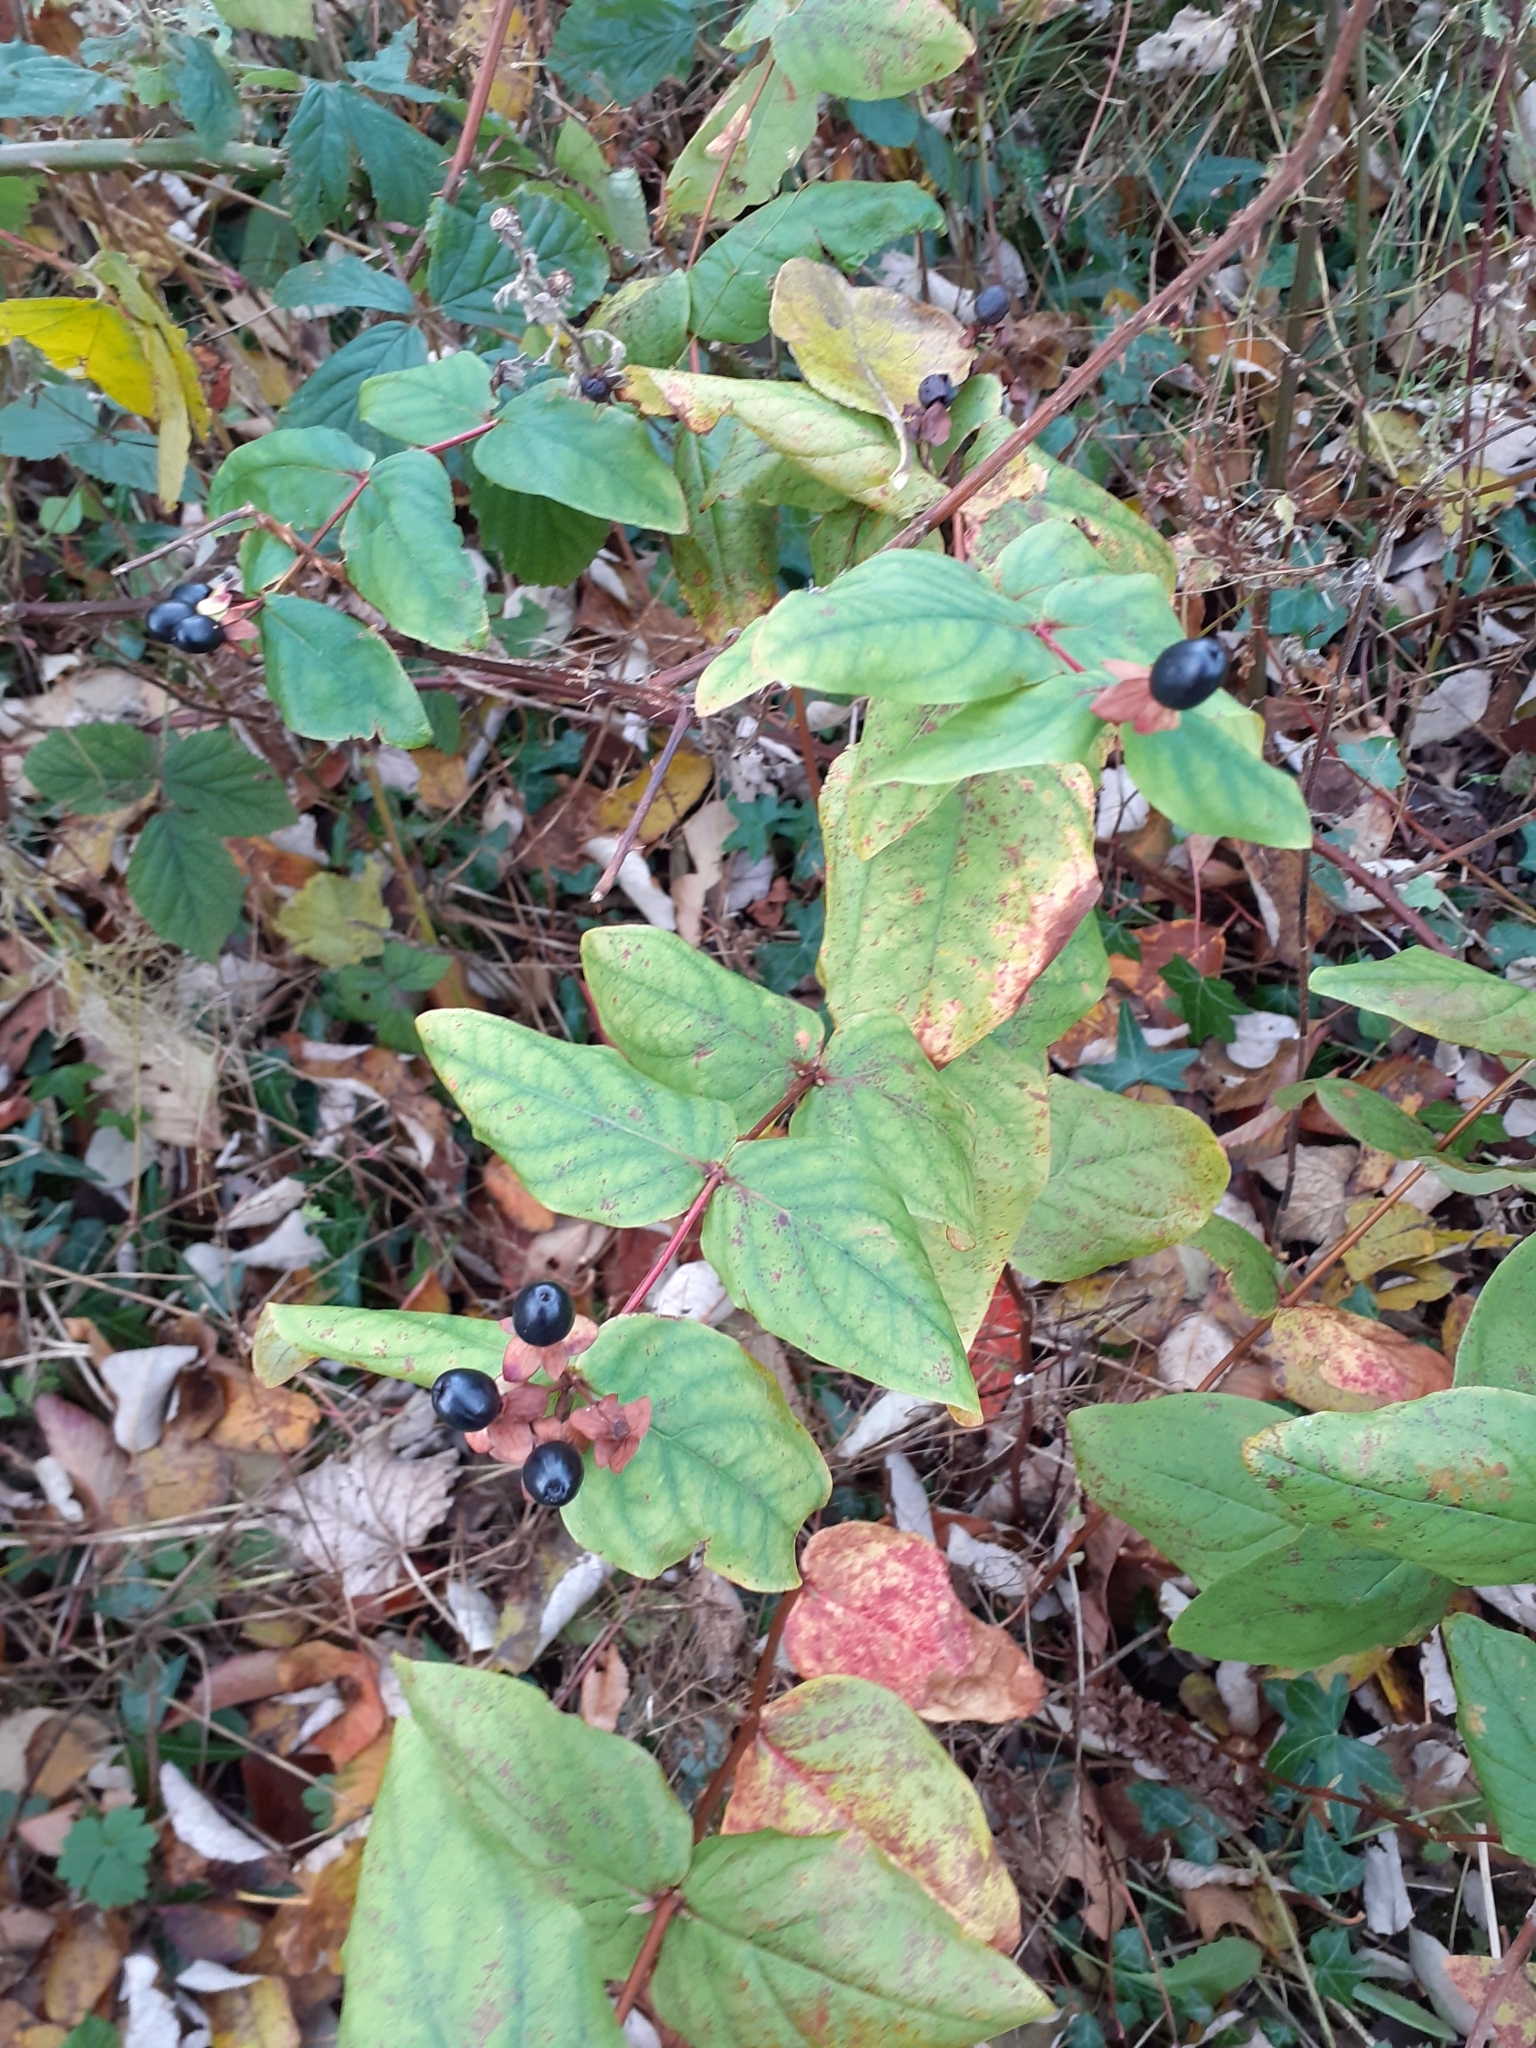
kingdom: Plantae
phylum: Tracheophyta
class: Magnoliopsida
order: Malpighiales
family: Hypericaceae
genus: Hypericum
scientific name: Hypericum androsaemum
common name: Sweet-amber
